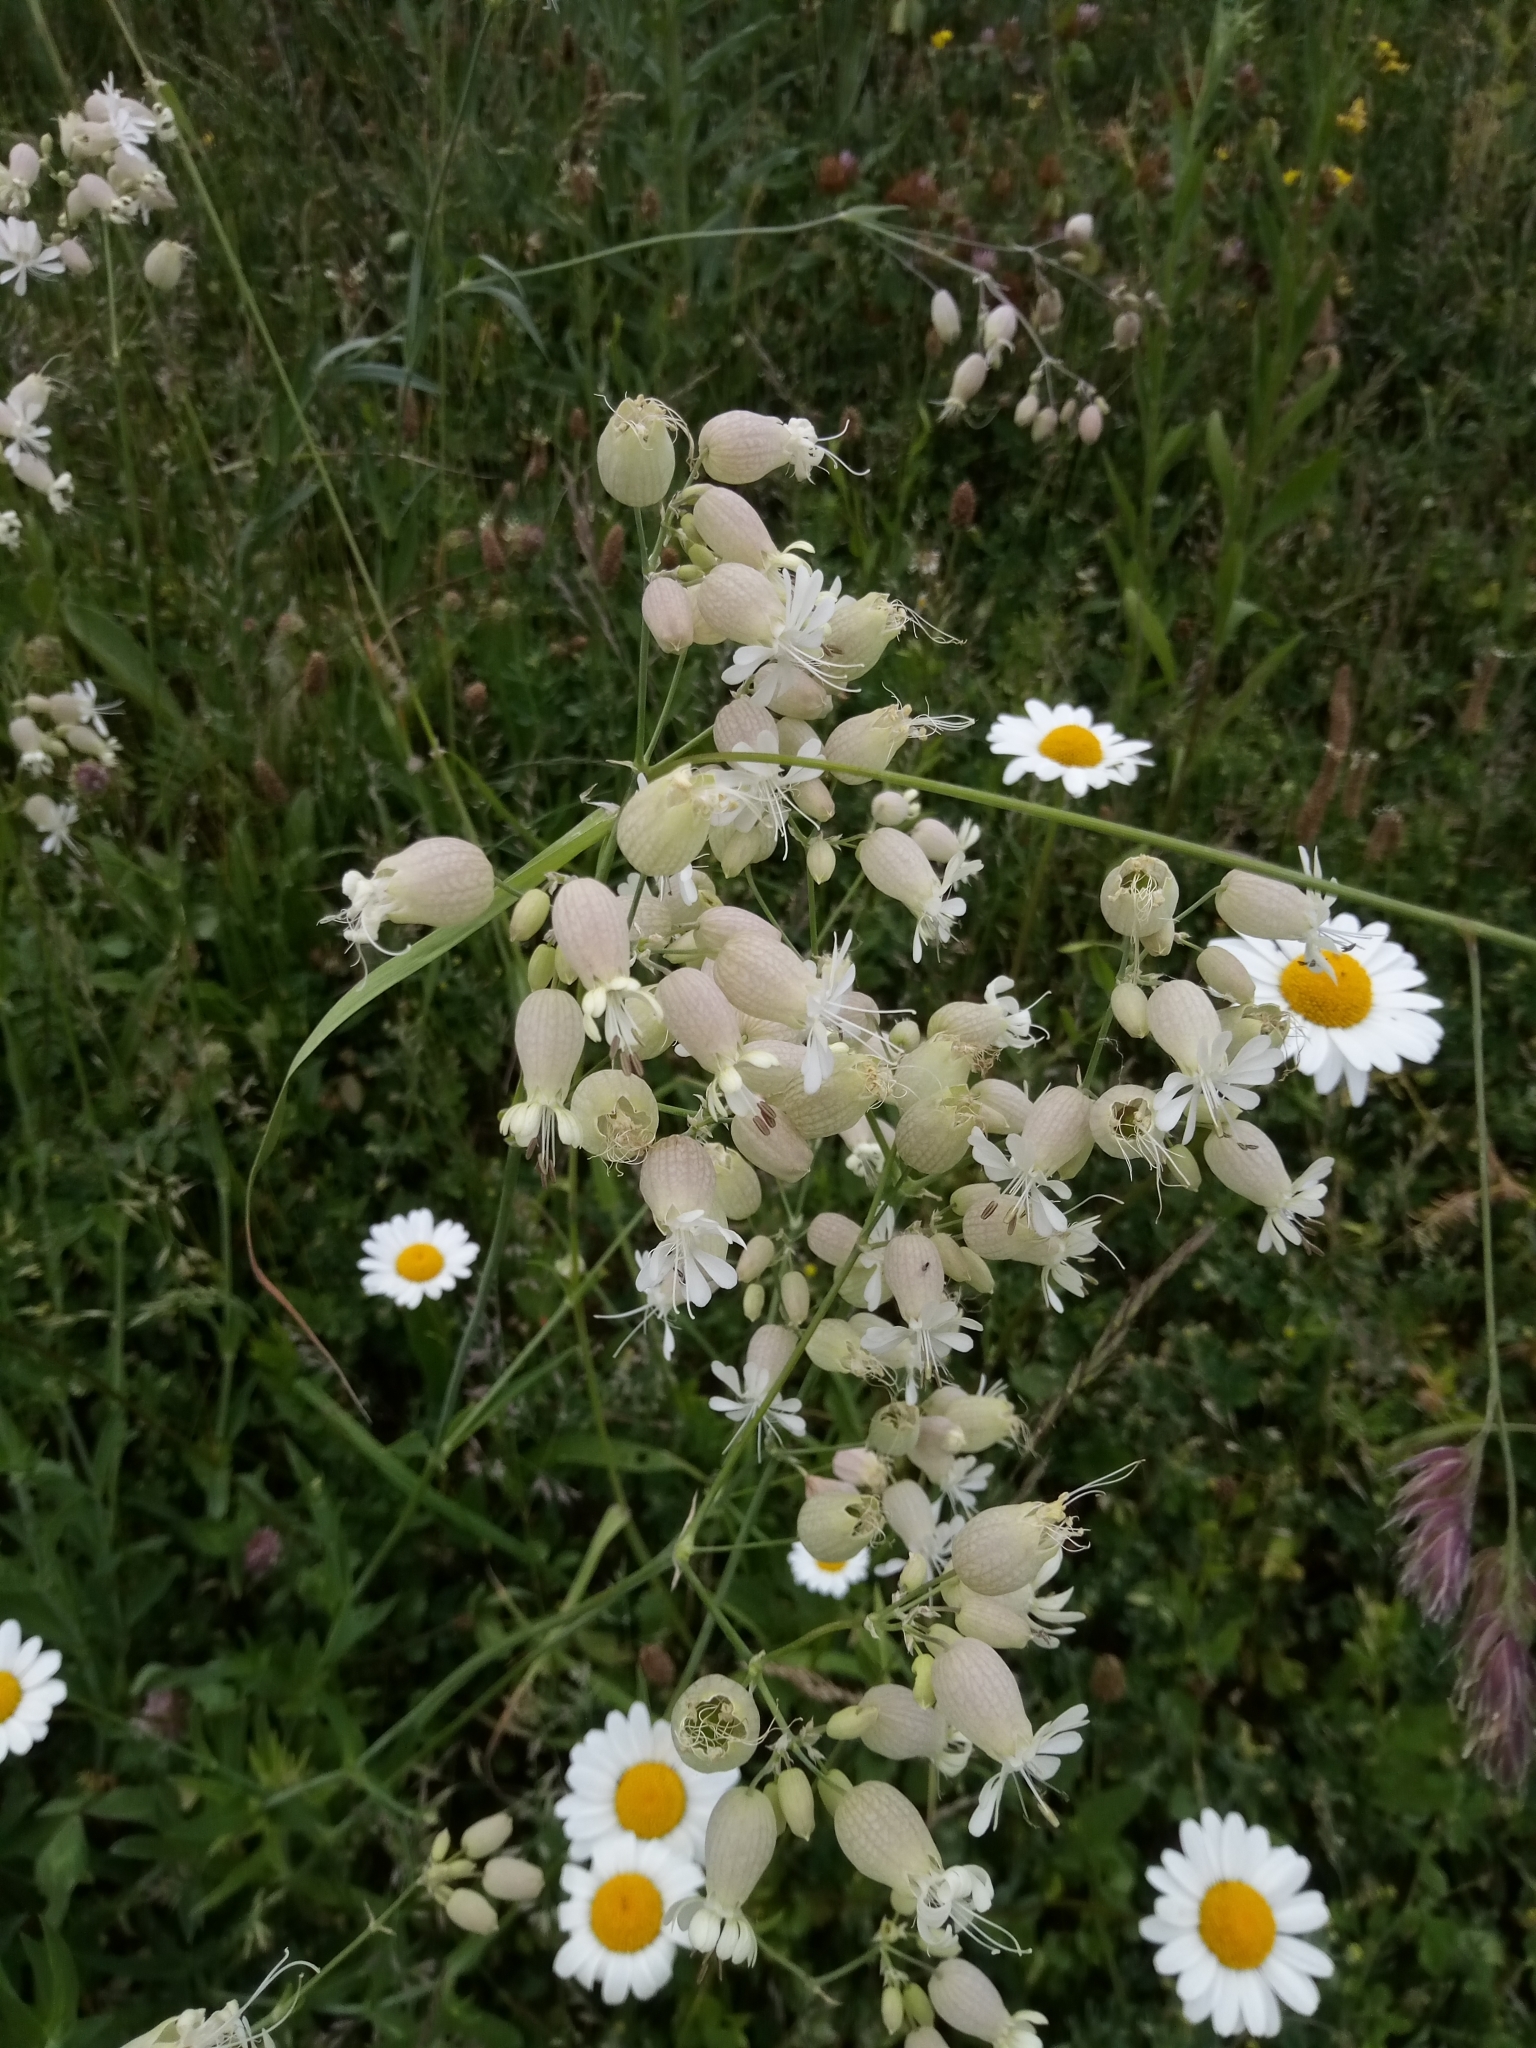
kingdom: Plantae
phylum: Tracheophyta
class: Magnoliopsida
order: Caryophyllales
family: Caryophyllaceae
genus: Silene
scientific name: Silene vulgaris
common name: Bladder campion
